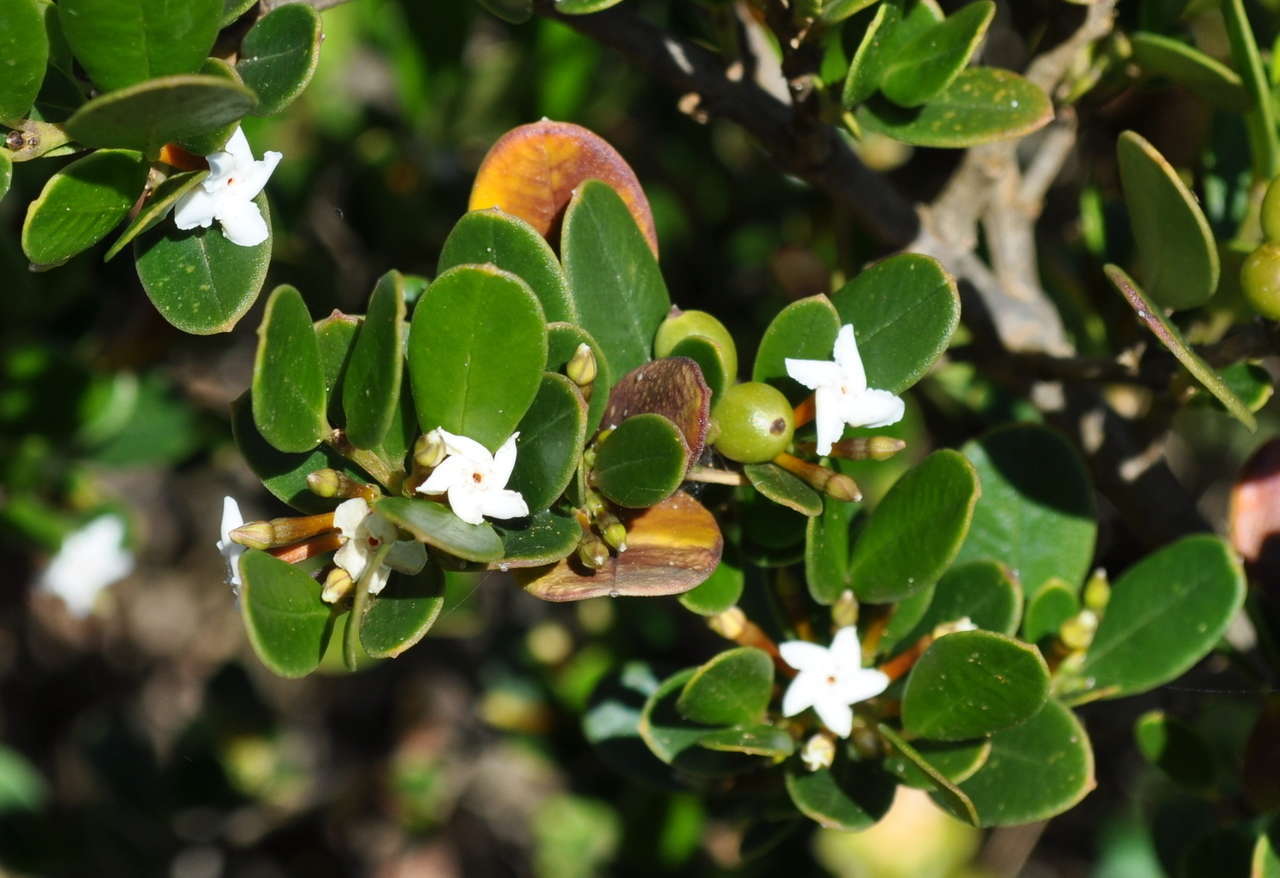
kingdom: Plantae
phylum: Tracheophyta
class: Magnoliopsida
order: Gentianales
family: Apocynaceae
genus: Alyxia
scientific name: Alyxia buxifolia
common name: Dysentery-bush
